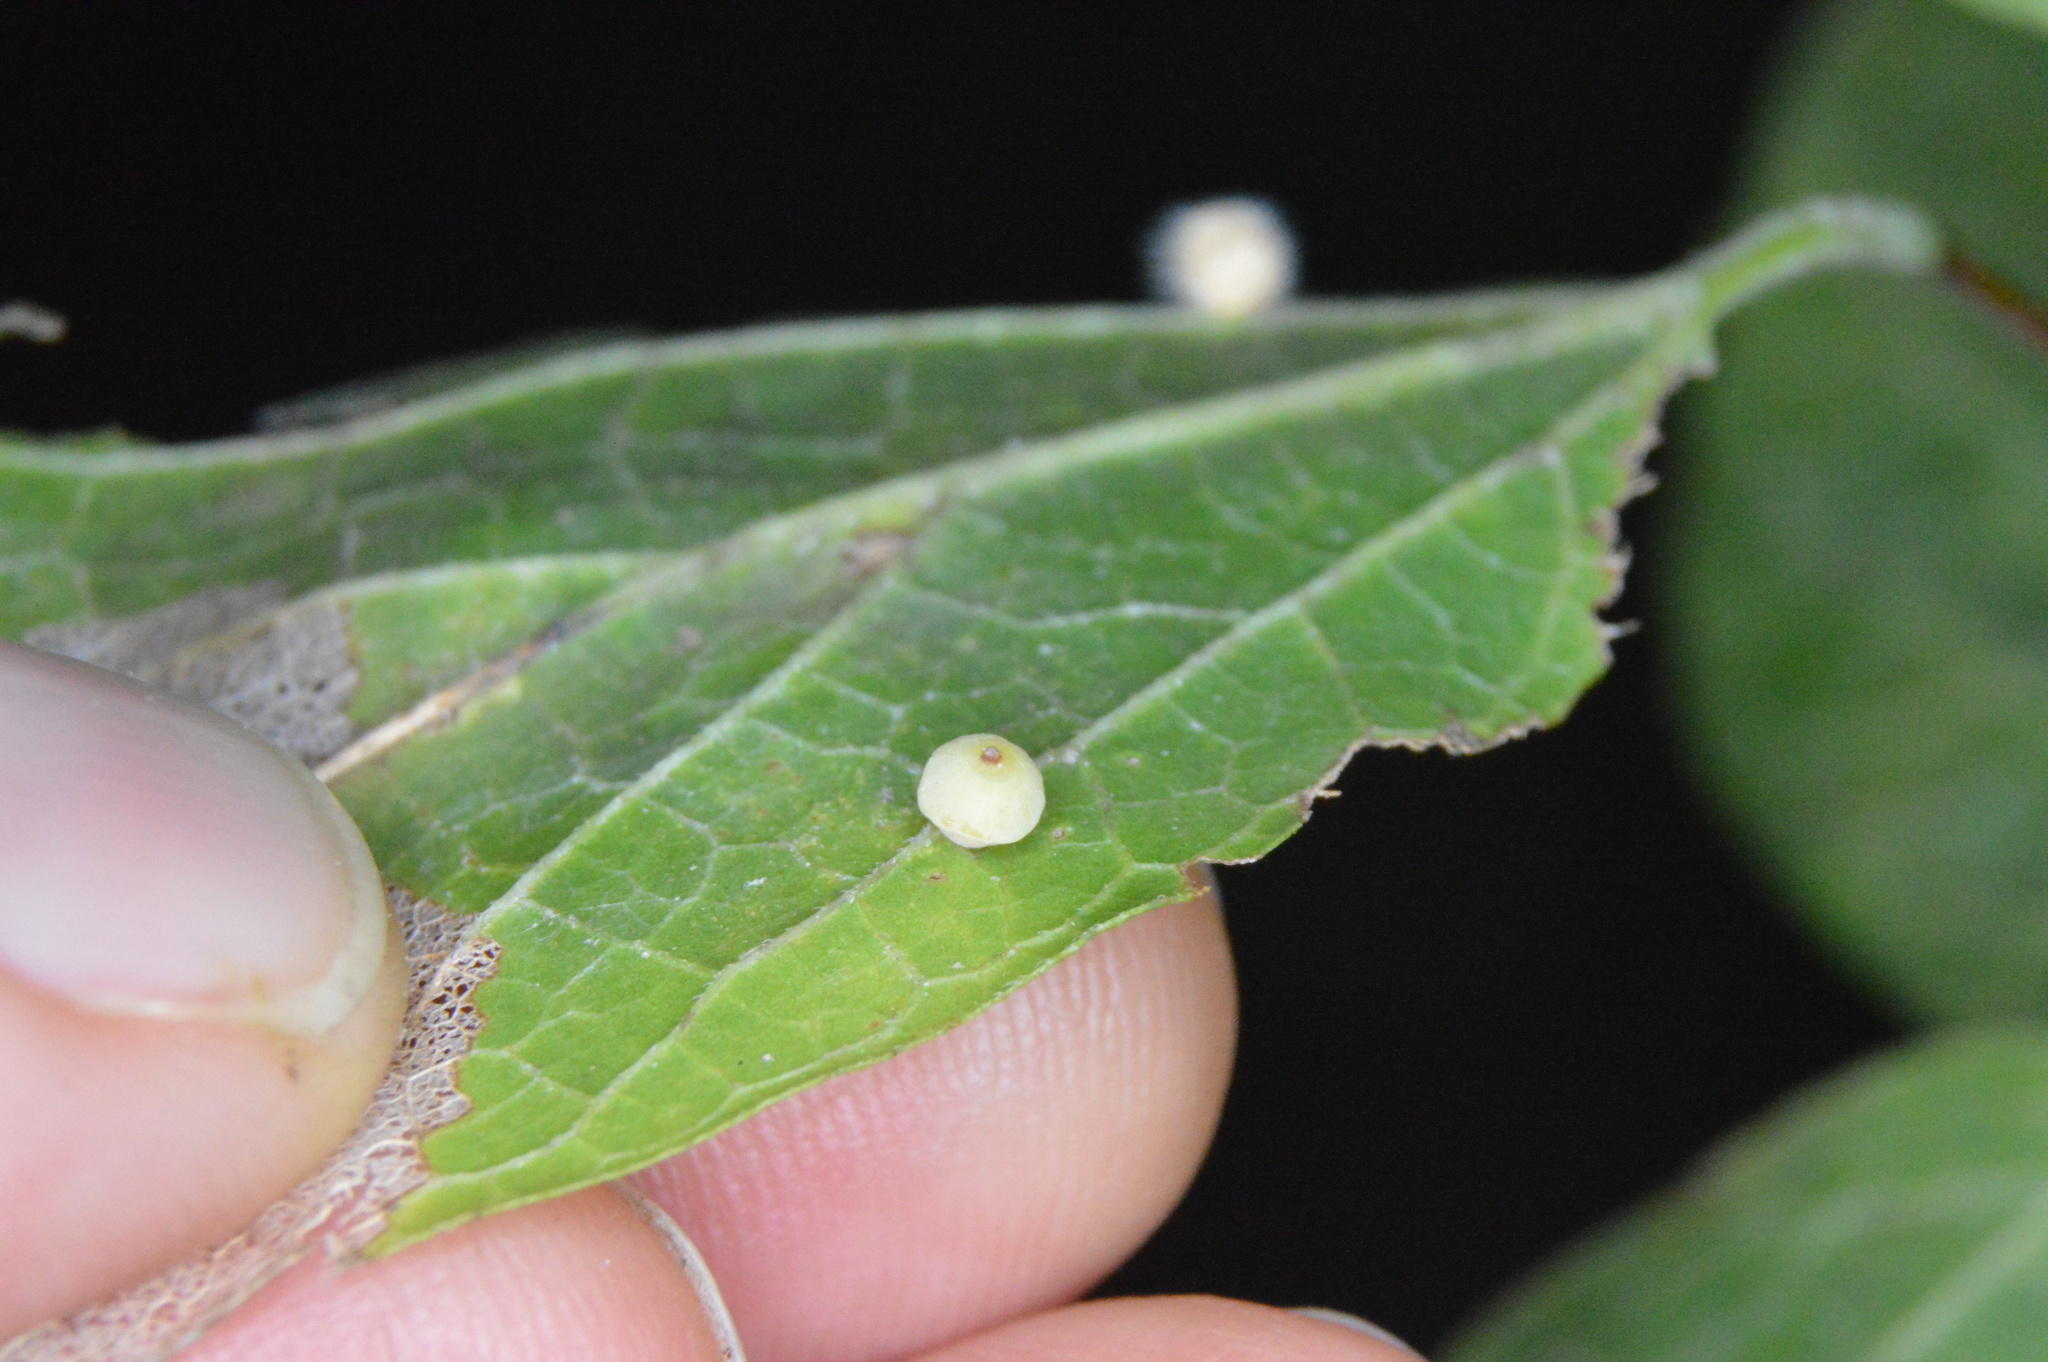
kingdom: Animalia
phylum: Arthropoda
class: Insecta
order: Diptera
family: Cecidomyiidae
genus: Celticecis
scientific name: Celticecis globosa
